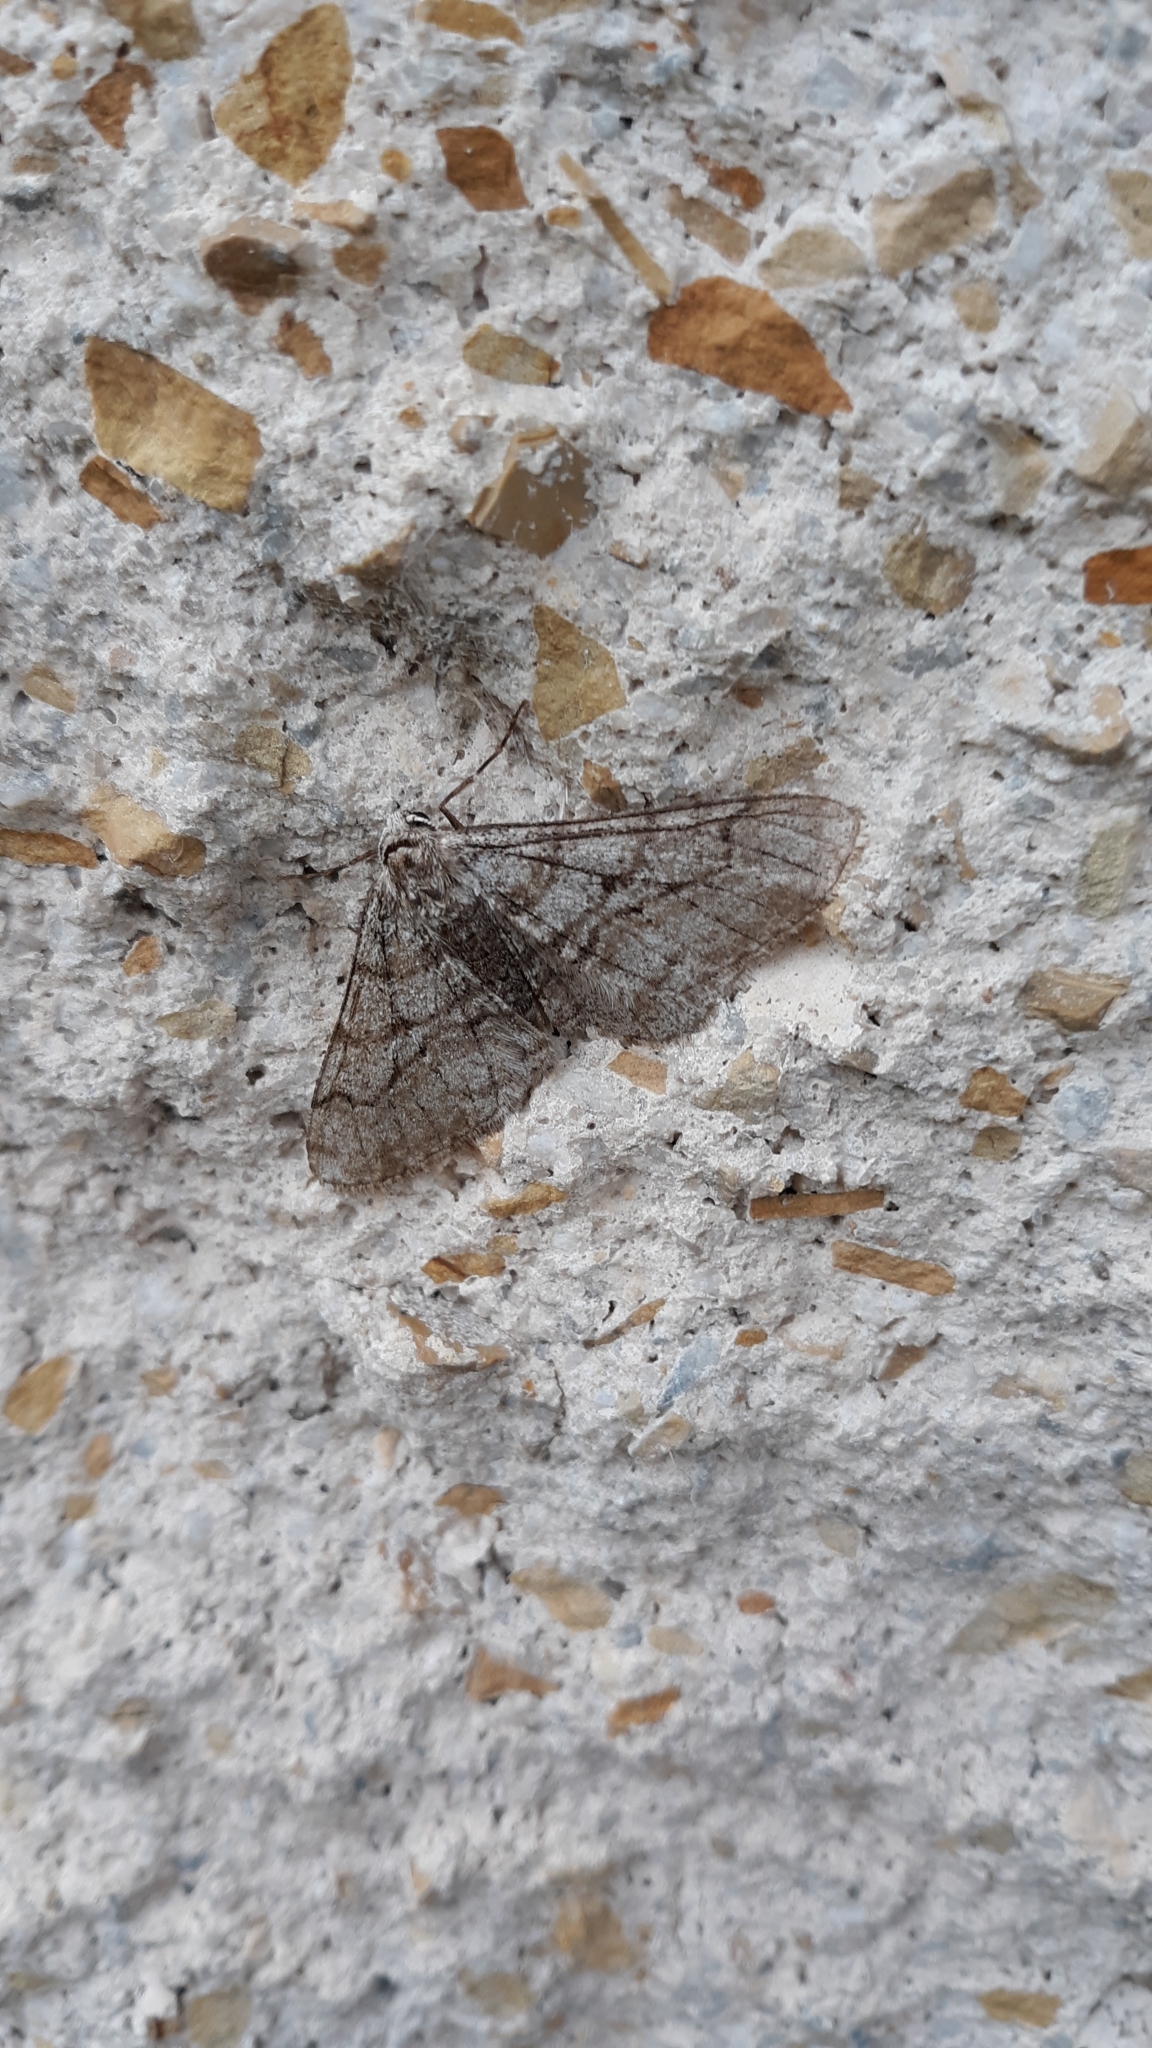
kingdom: Animalia
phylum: Arthropoda
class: Insecta
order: Lepidoptera
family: Geometridae
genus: Phigalia
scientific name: Phigalia titea
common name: Spiny looper
